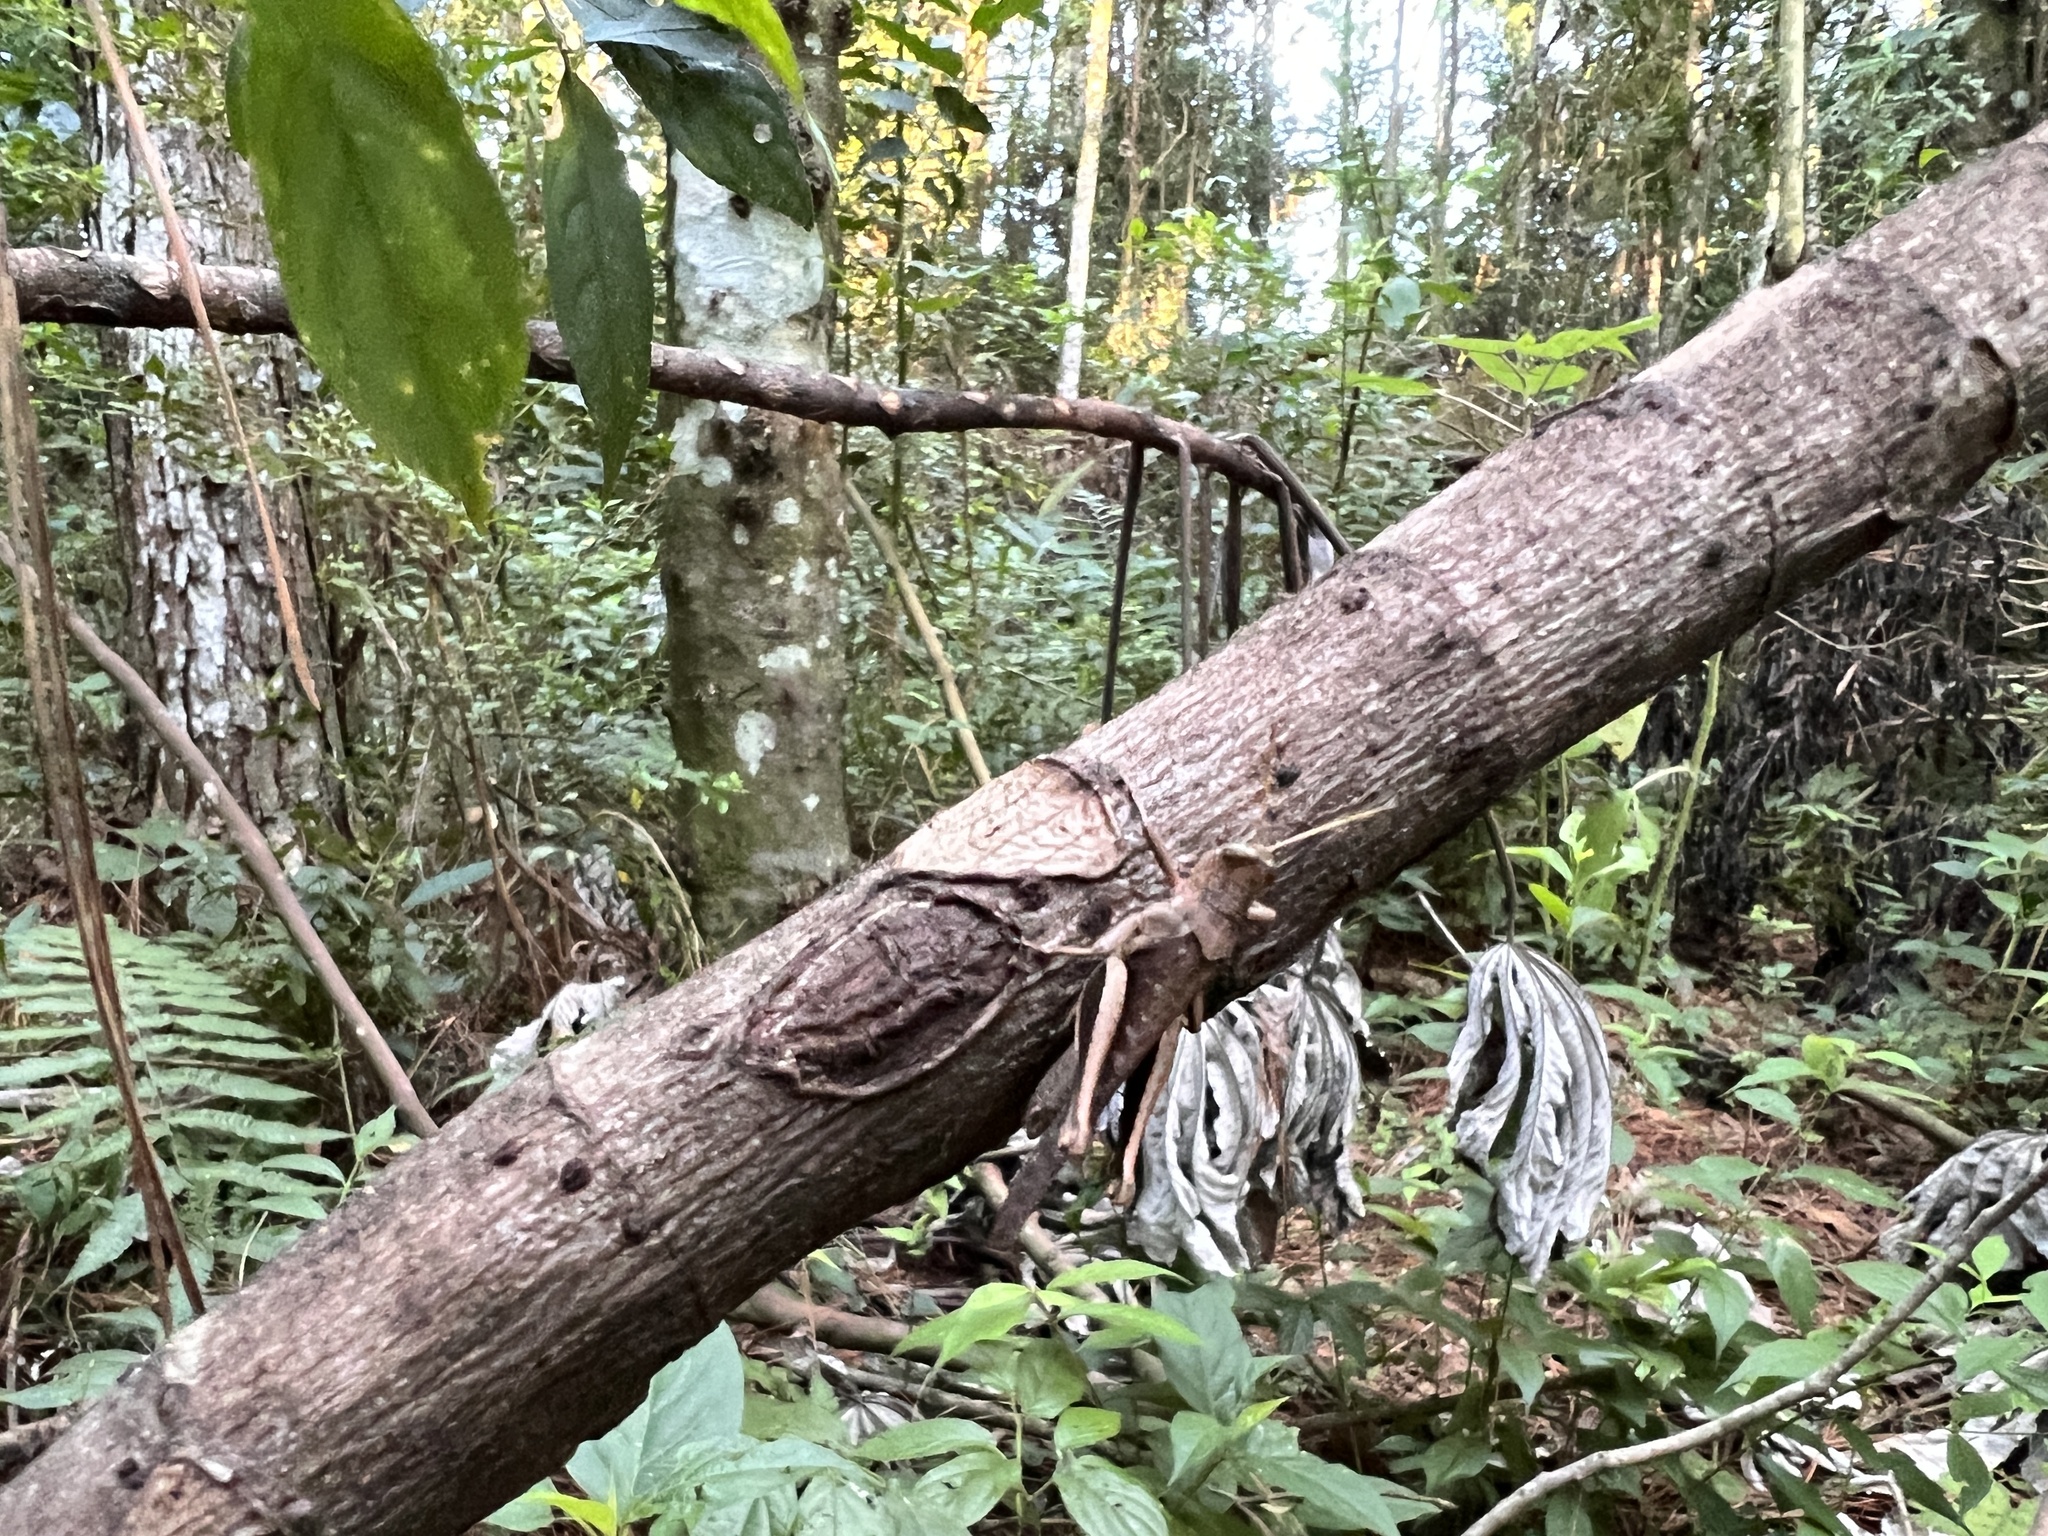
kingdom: Animalia
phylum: Arthropoda
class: Insecta
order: Orthoptera
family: Acrididae
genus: Abracris
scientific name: Abracris flavolineata
